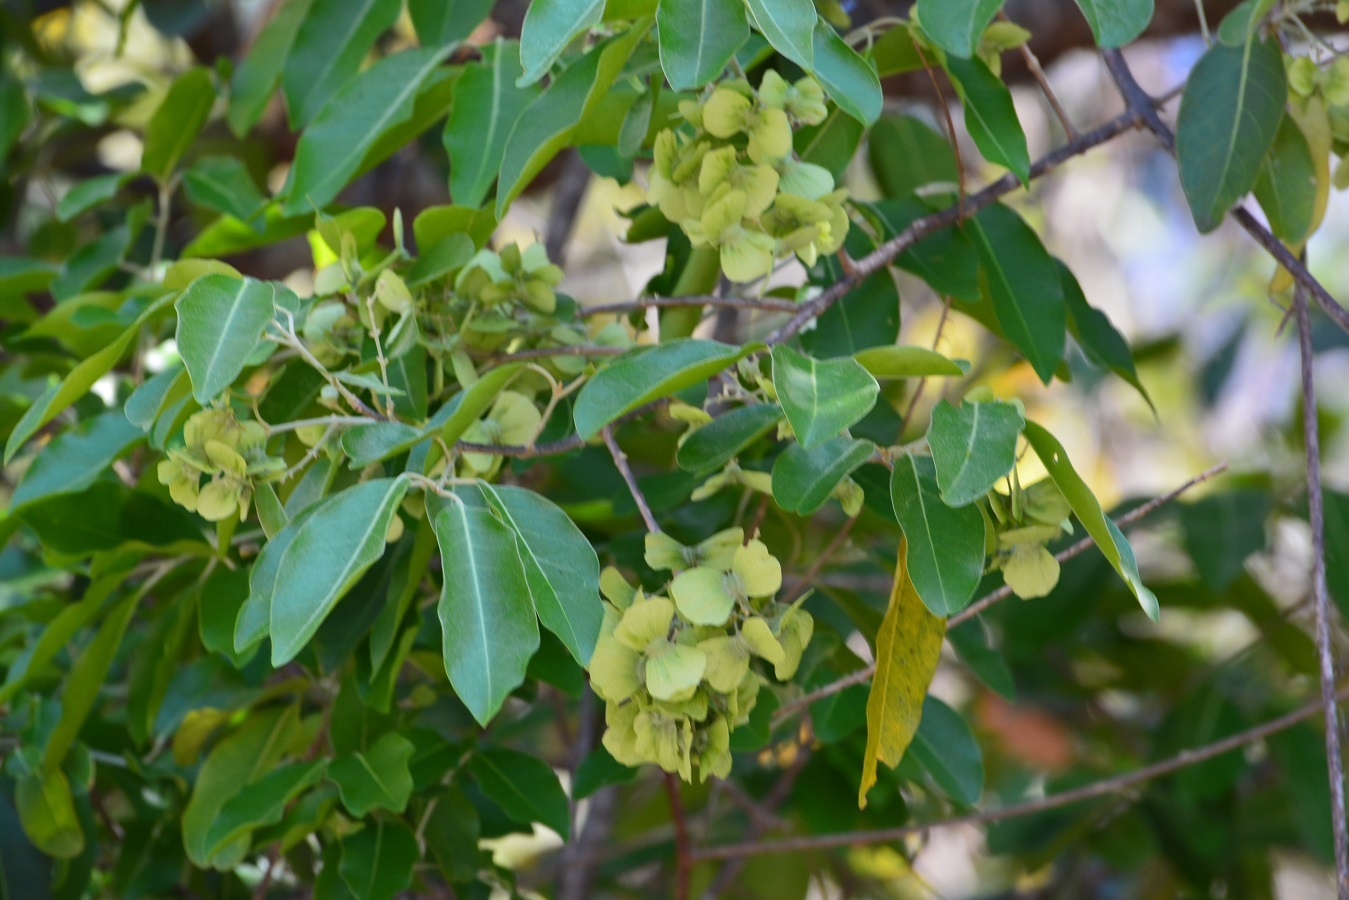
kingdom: Plantae
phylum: Tracheophyta
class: Magnoliopsida
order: Malpighiales
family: Malpighiaceae
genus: Psychopterys
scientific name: Psychopterys multiflora
